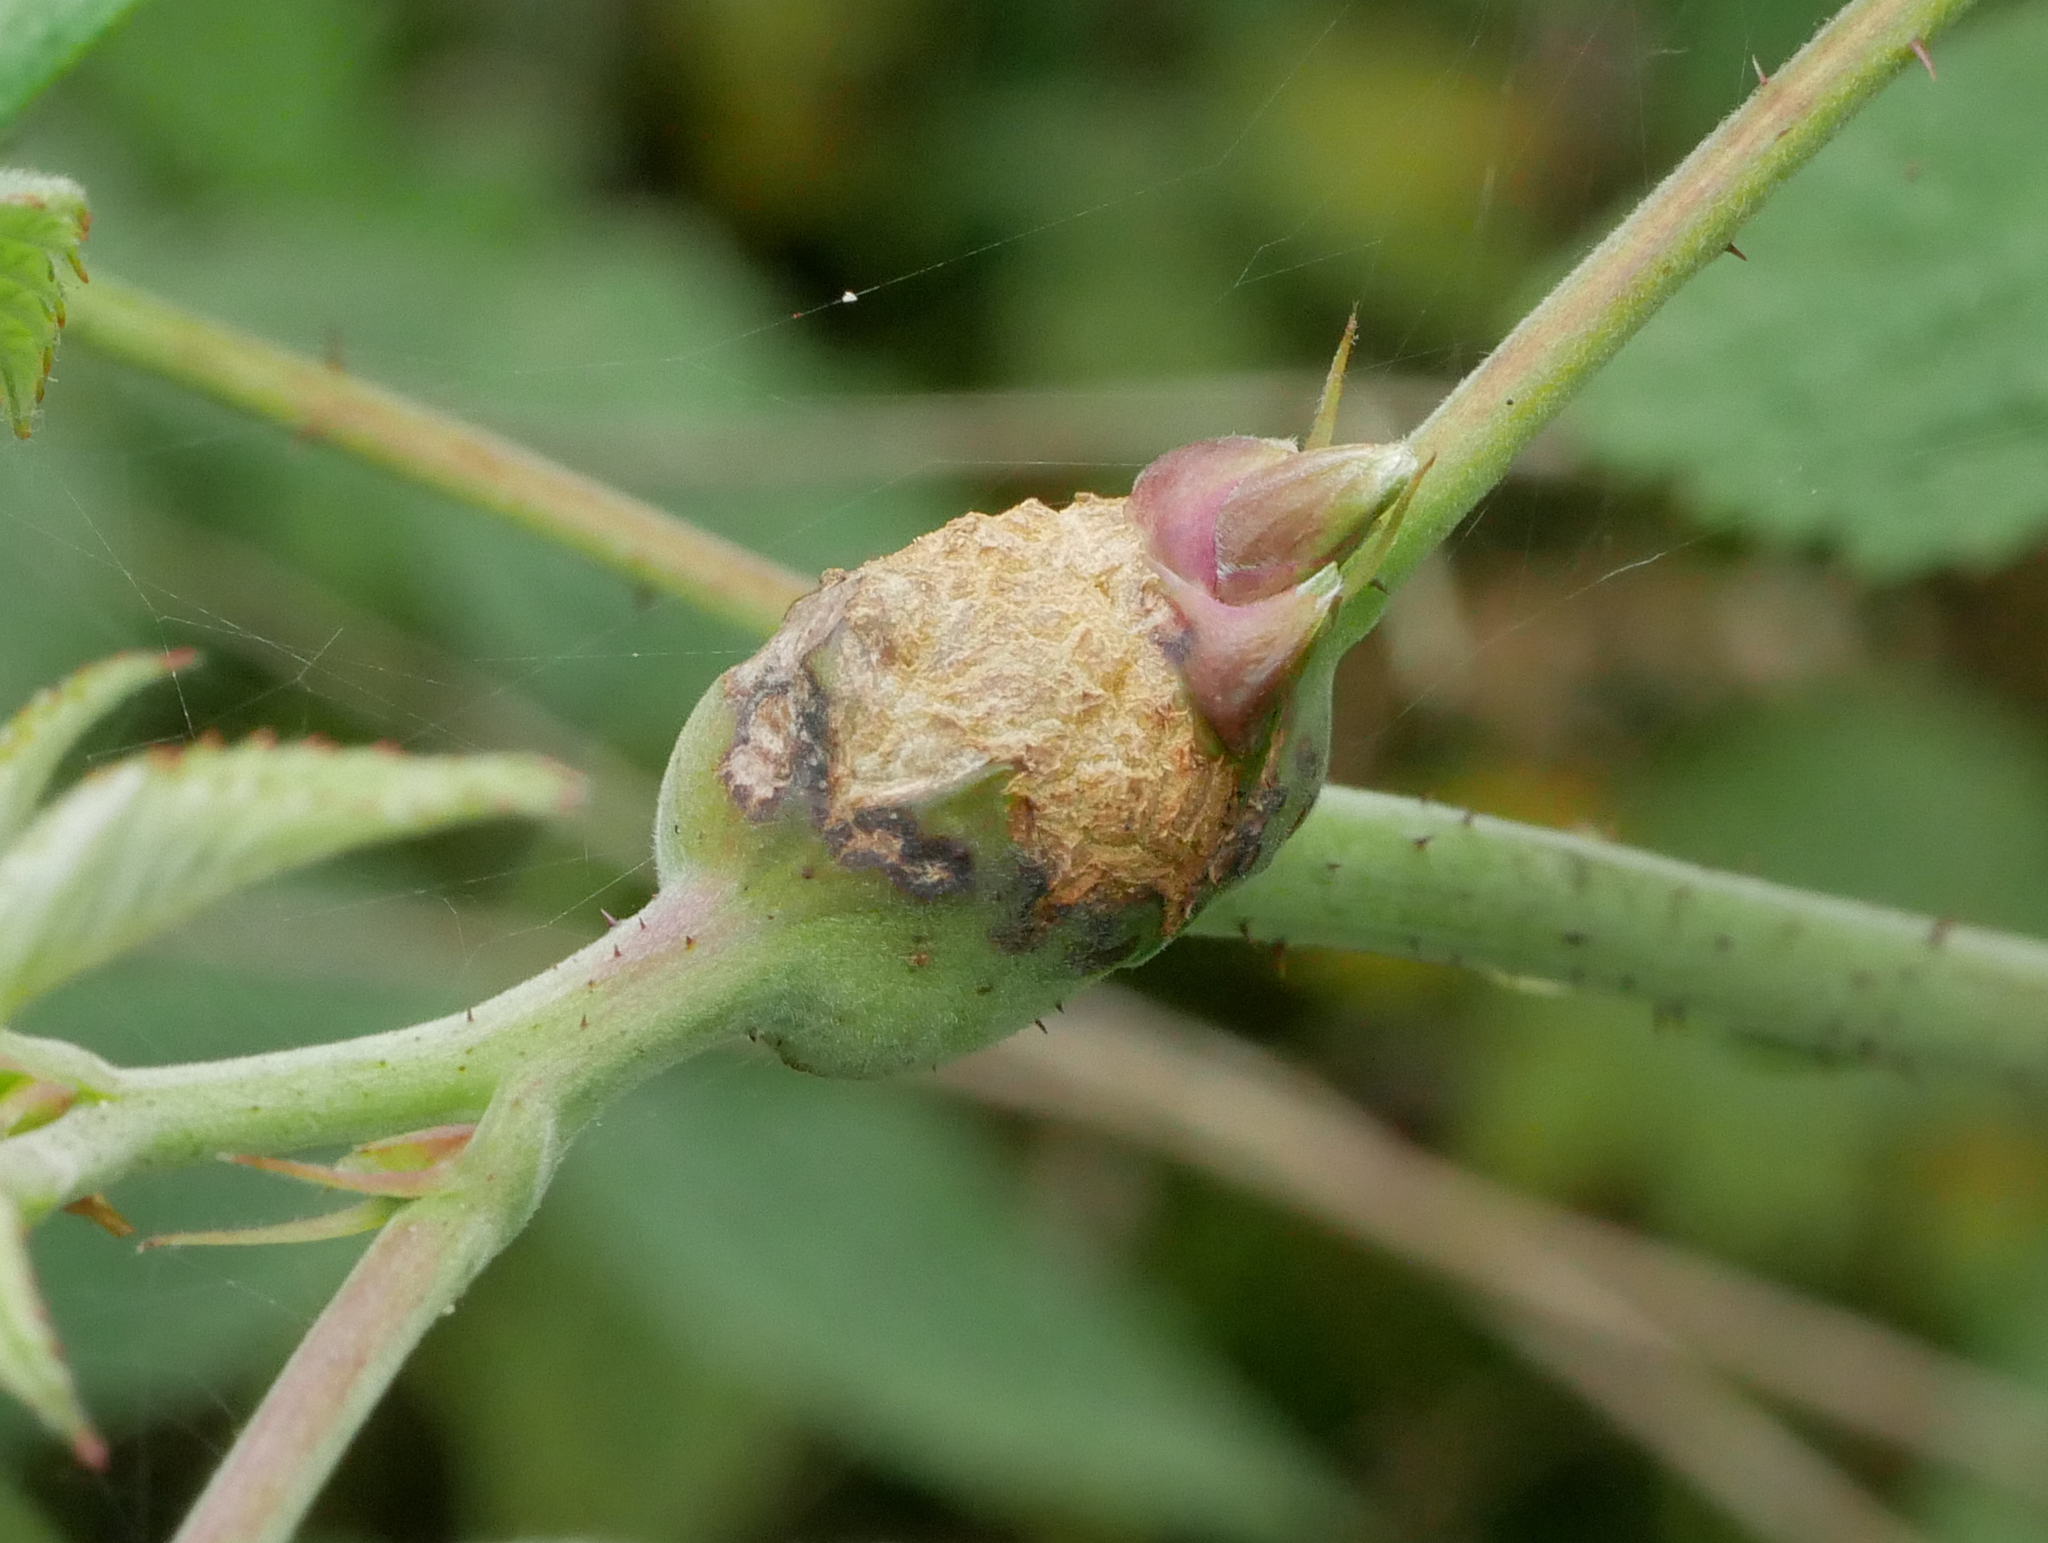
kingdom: Animalia
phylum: Arthropoda
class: Insecta
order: Diptera
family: Cecidomyiidae
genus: Lasioptera
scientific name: Lasioptera rubi
